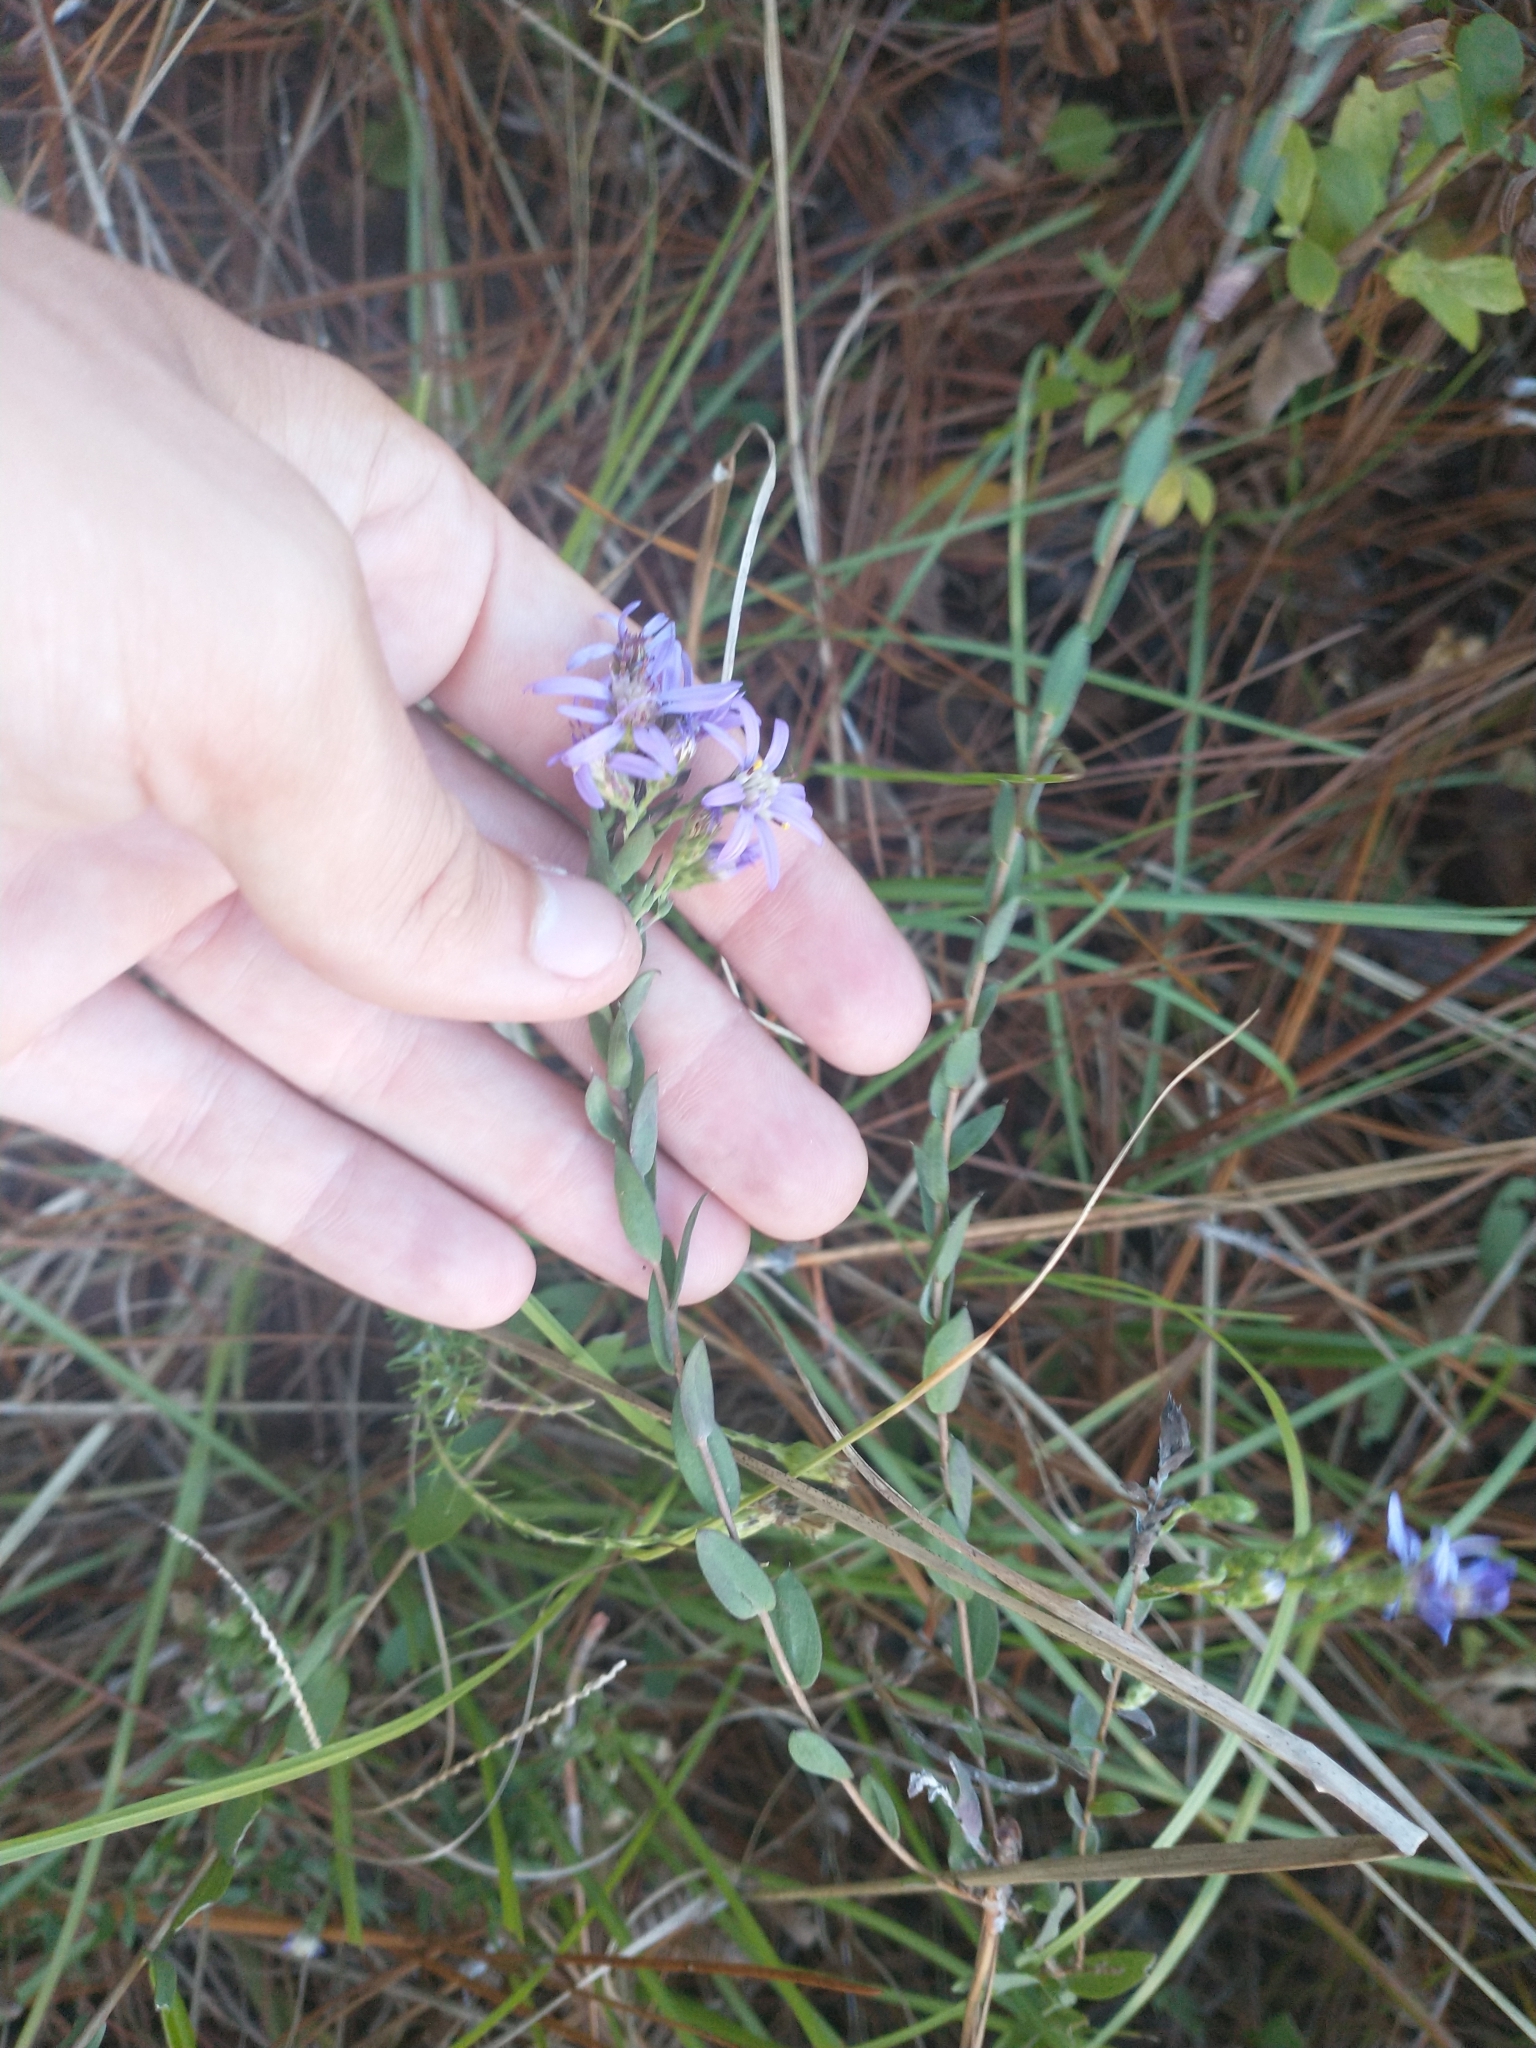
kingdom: Plantae
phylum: Tracheophyta
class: Magnoliopsida
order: Asterales
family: Asteraceae
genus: Symphyotrichum
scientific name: Symphyotrichum concolor
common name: Eastern silver aster
